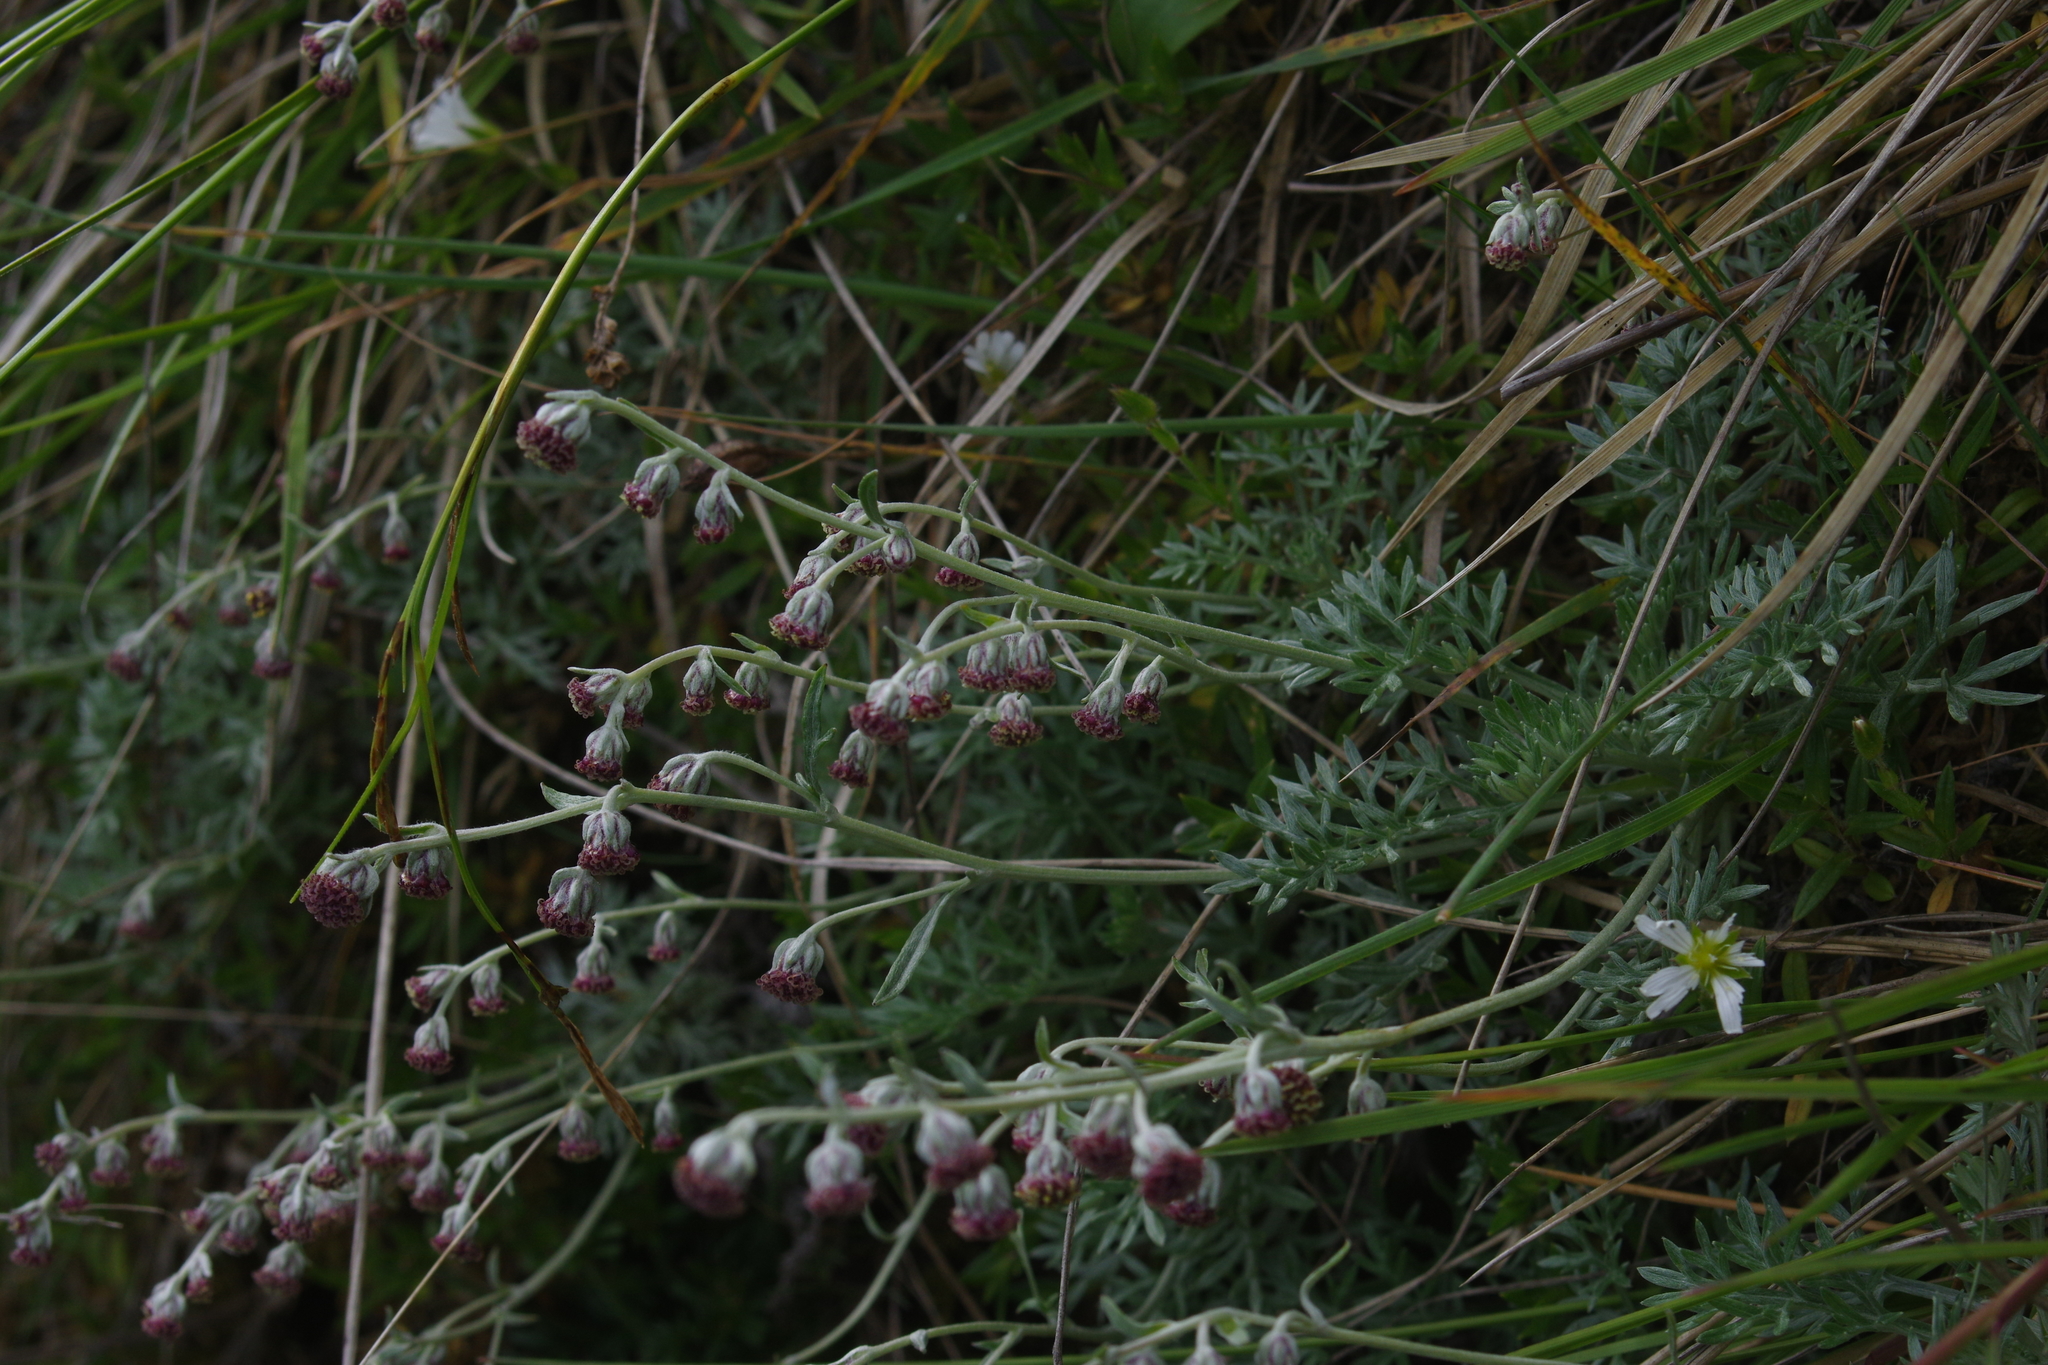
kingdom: Plantae
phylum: Tracheophyta
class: Magnoliopsida
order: Asterales
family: Asteraceae
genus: Artemisia
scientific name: Artemisia kawakamii
